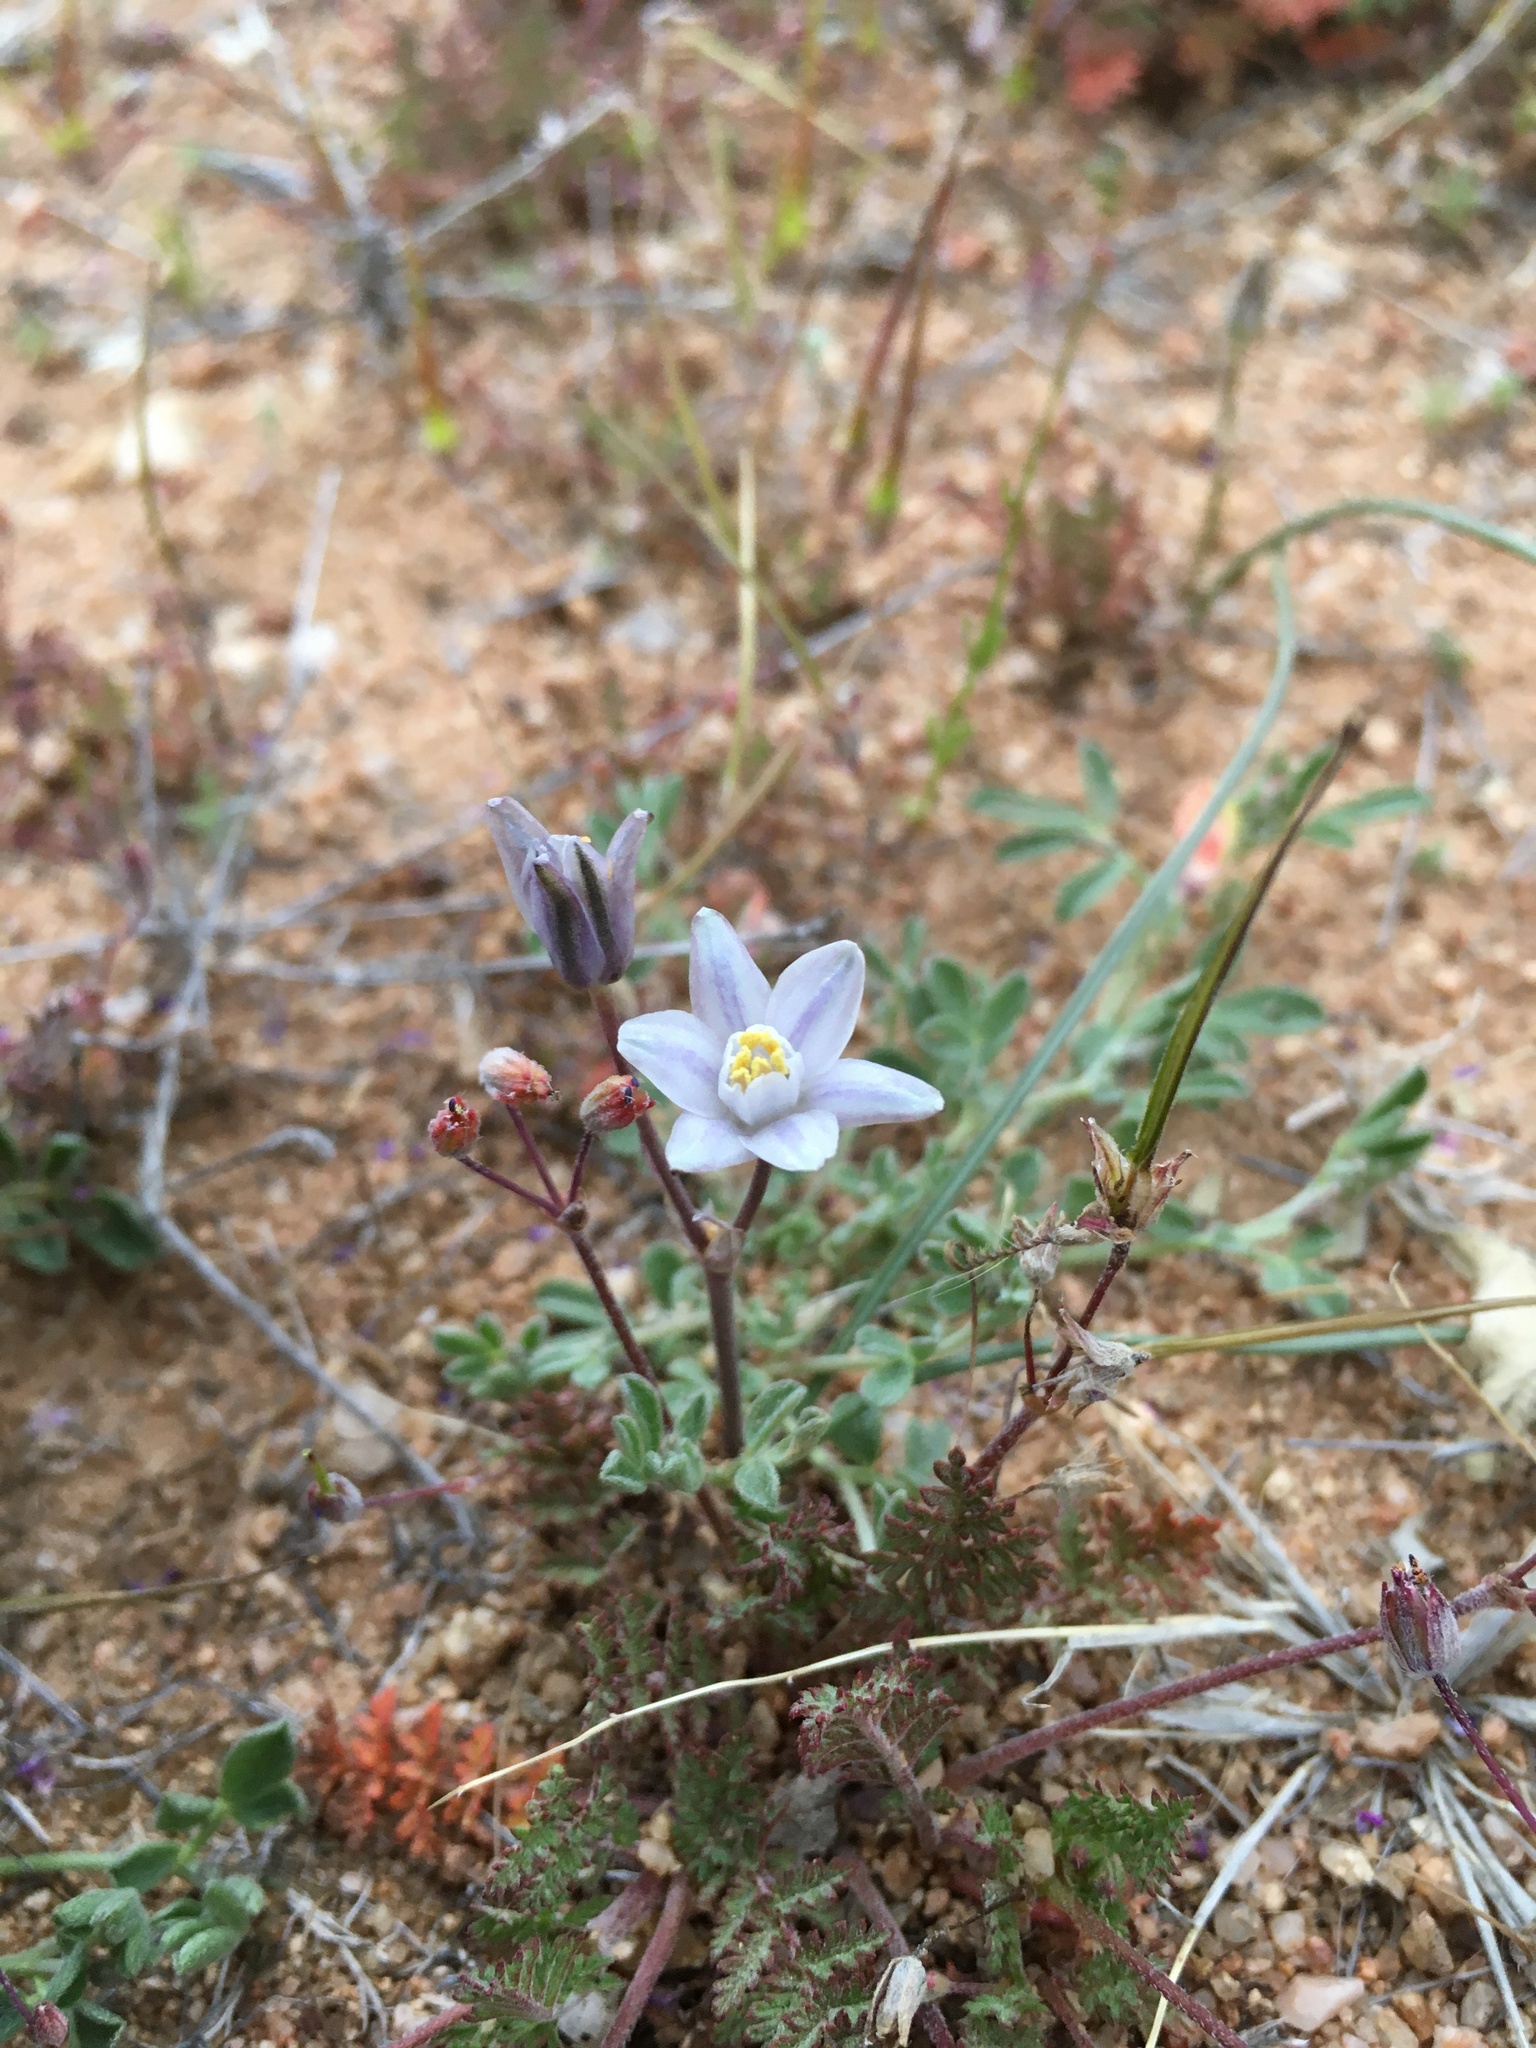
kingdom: Plantae
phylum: Tracheophyta
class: Liliopsida
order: Asparagales
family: Asparagaceae
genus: Muilla
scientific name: Muilla lordsburgana
